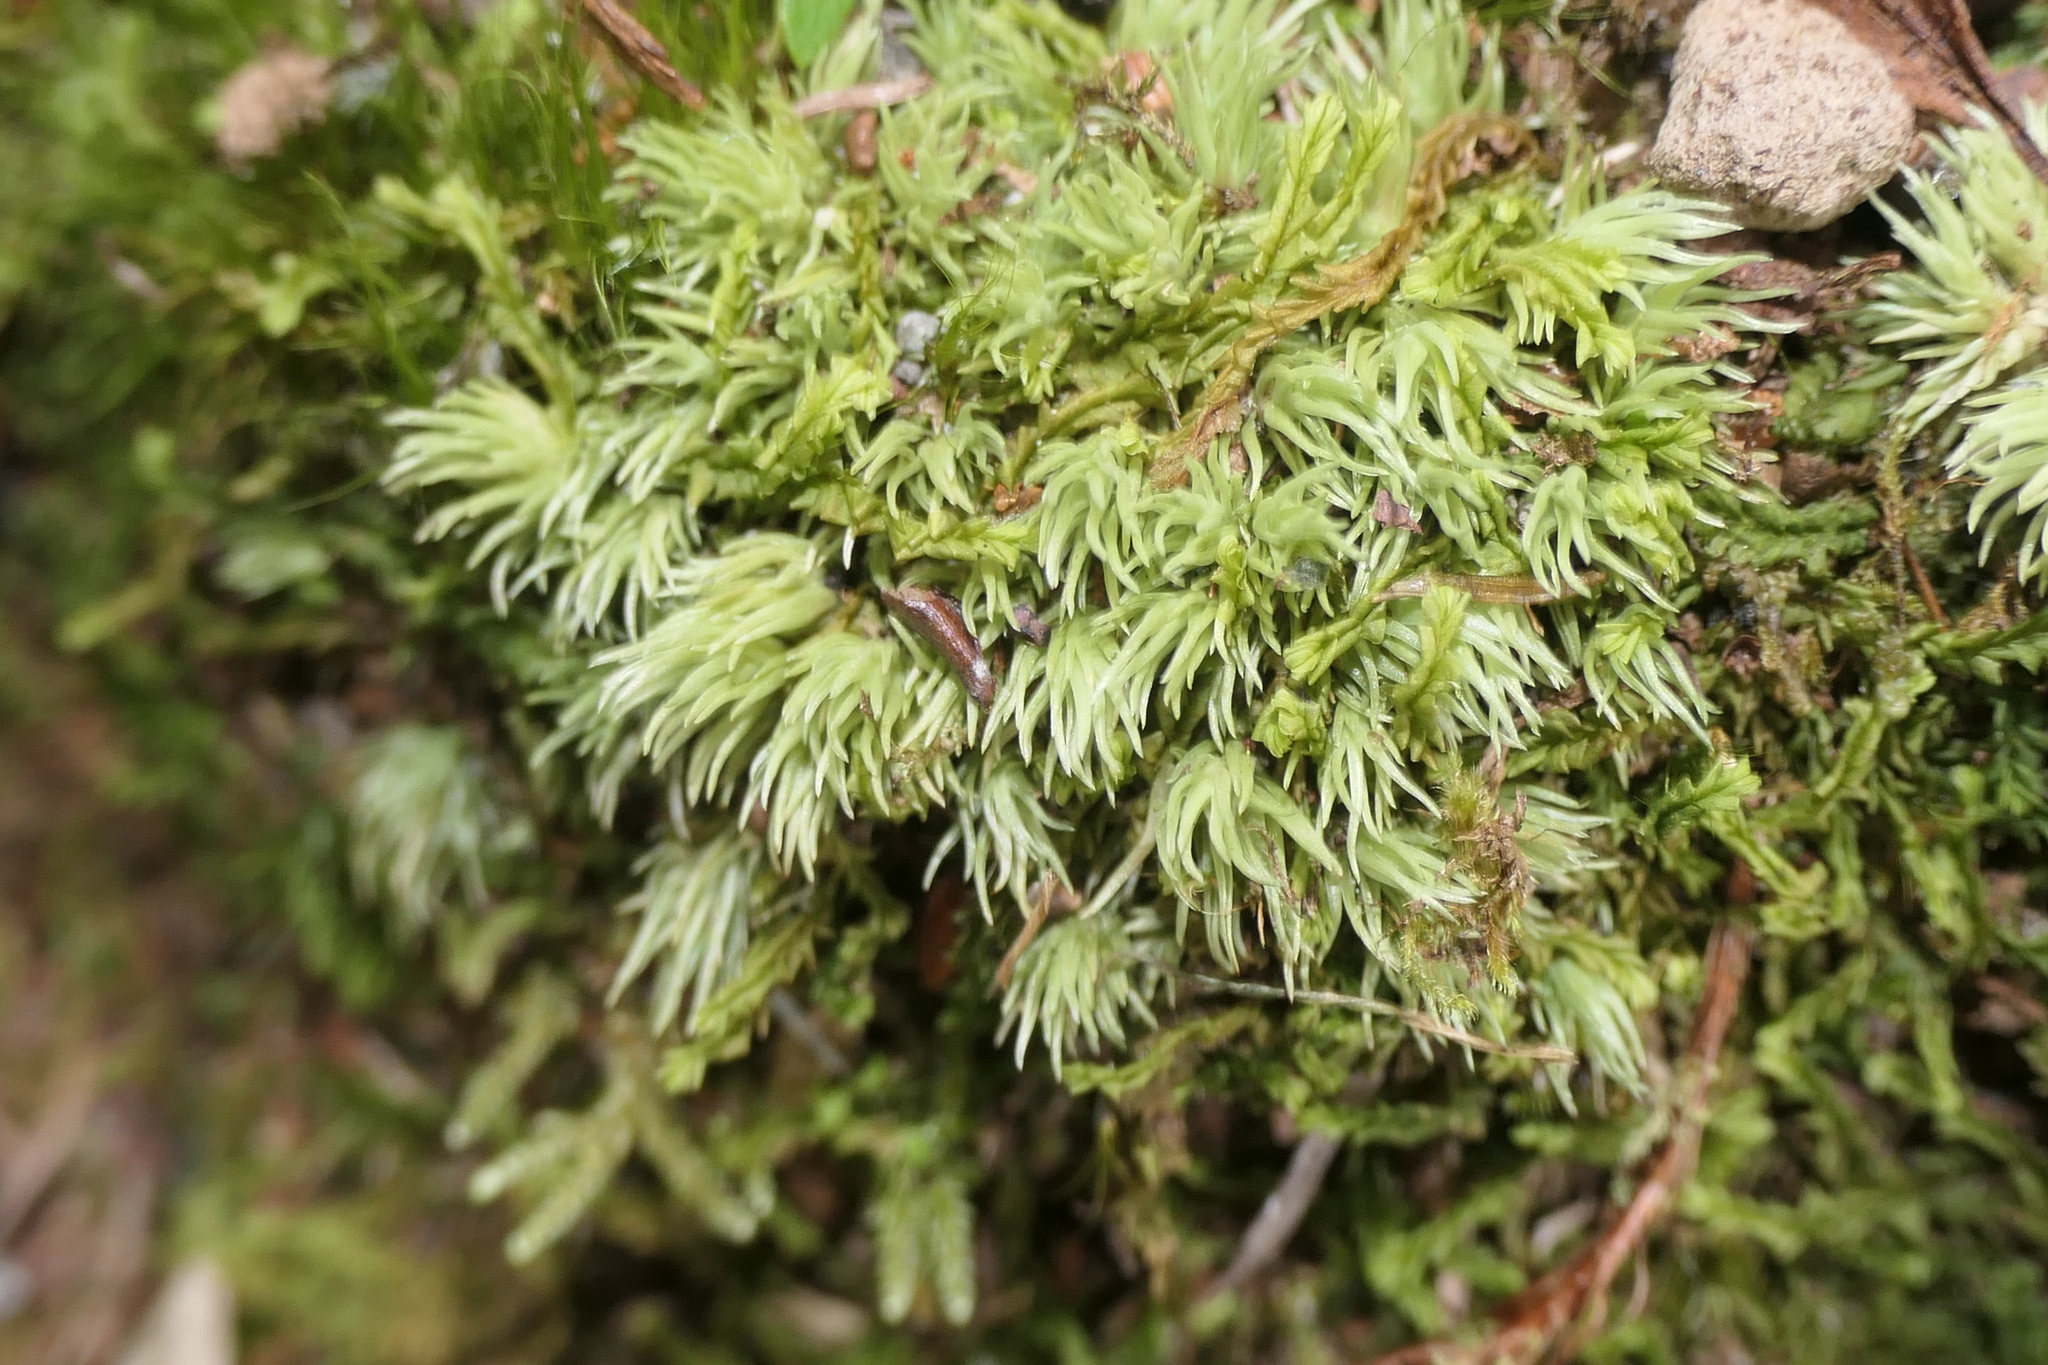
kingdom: Plantae
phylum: Bryophyta
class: Bryopsida
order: Dicranales
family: Leucobryaceae
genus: Leucobryum
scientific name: Leucobryum juniperoideum
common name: Smaller white-moss
